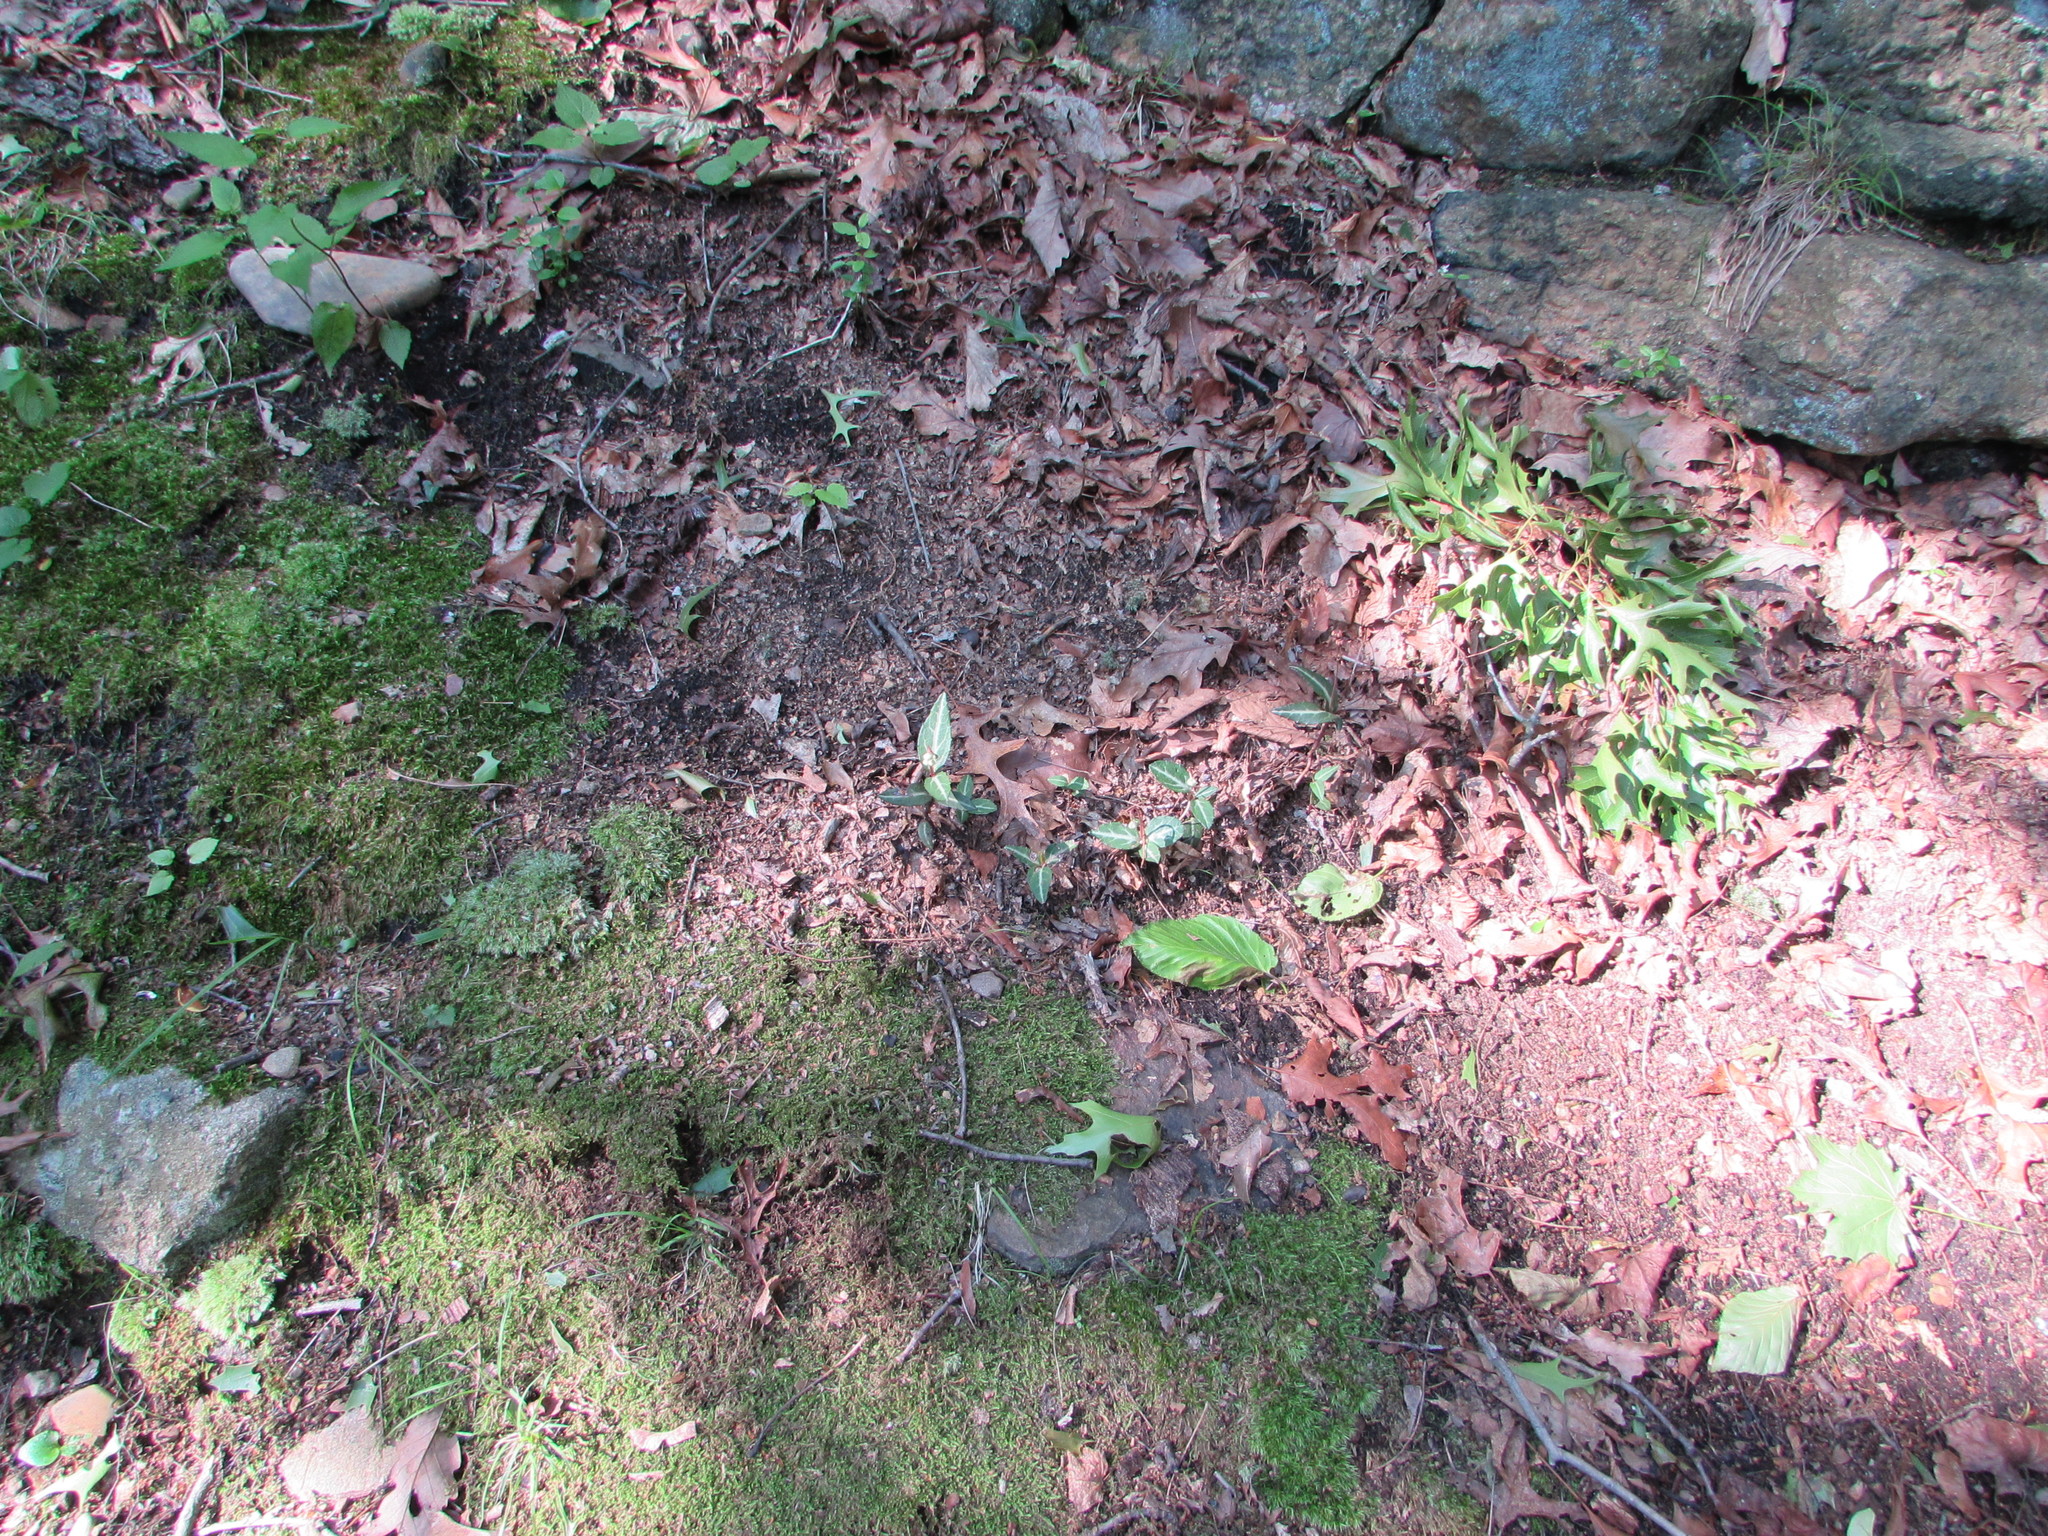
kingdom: Plantae
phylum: Tracheophyta
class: Magnoliopsida
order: Ericales
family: Ericaceae
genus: Chimaphila
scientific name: Chimaphila maculata
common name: Spotted pipsissewa
